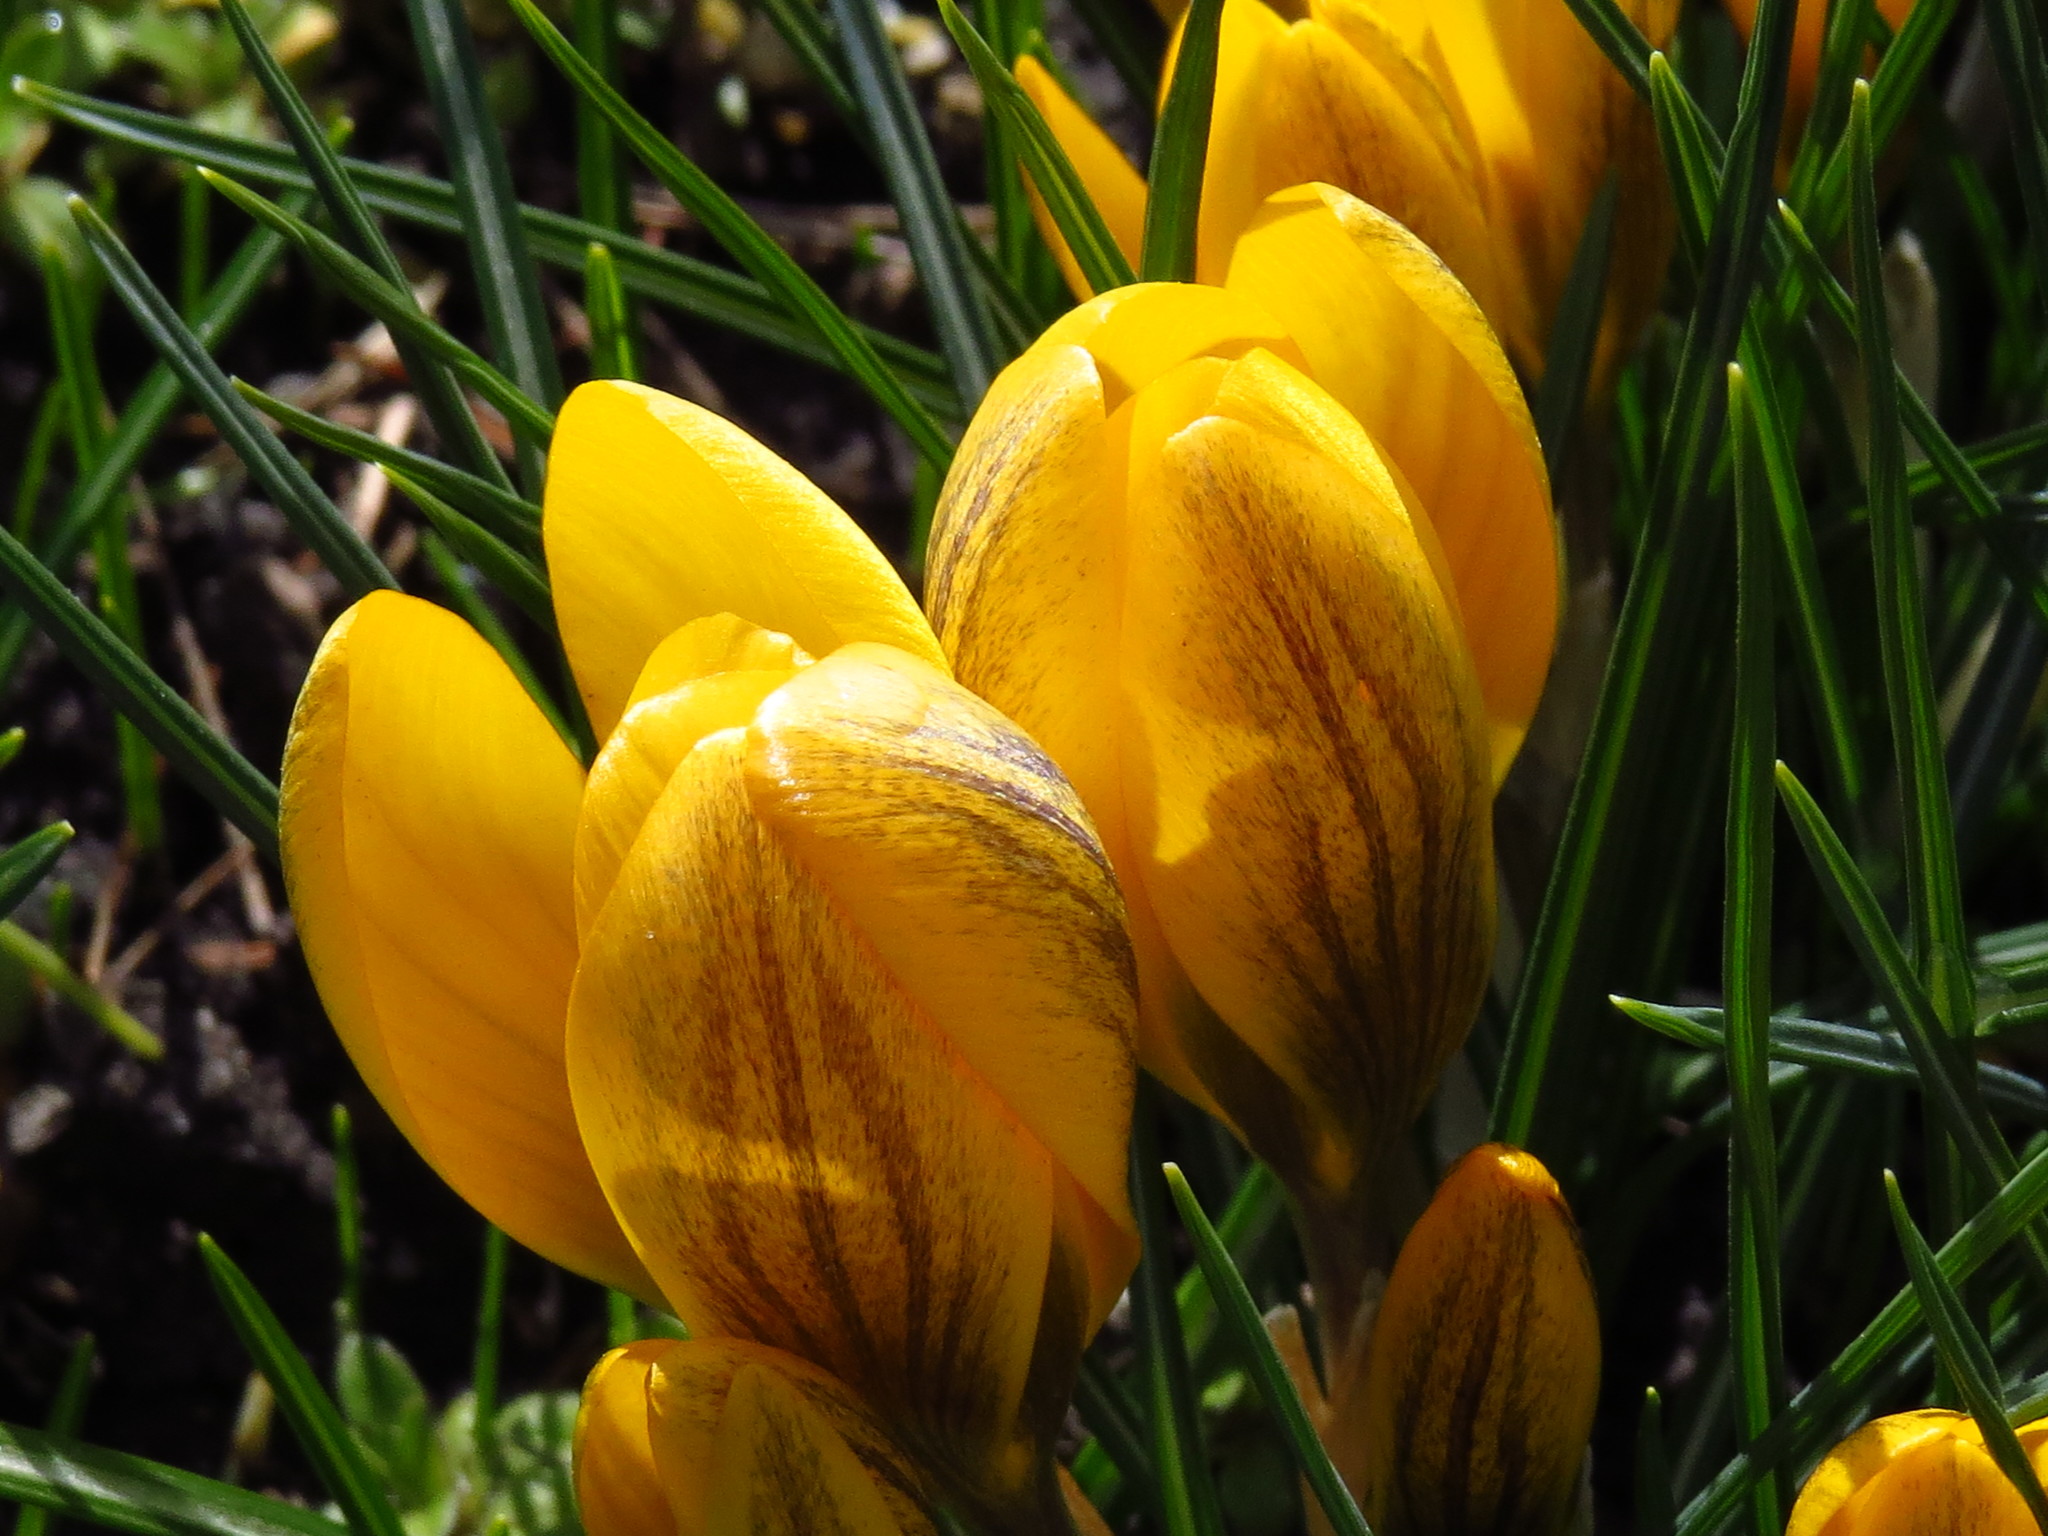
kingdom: Plantae
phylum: Tracheophyta
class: Liliopsida
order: Asparagales
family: Iridaceae
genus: Crocus
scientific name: Crocus chrysanthus
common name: Golden crocus
